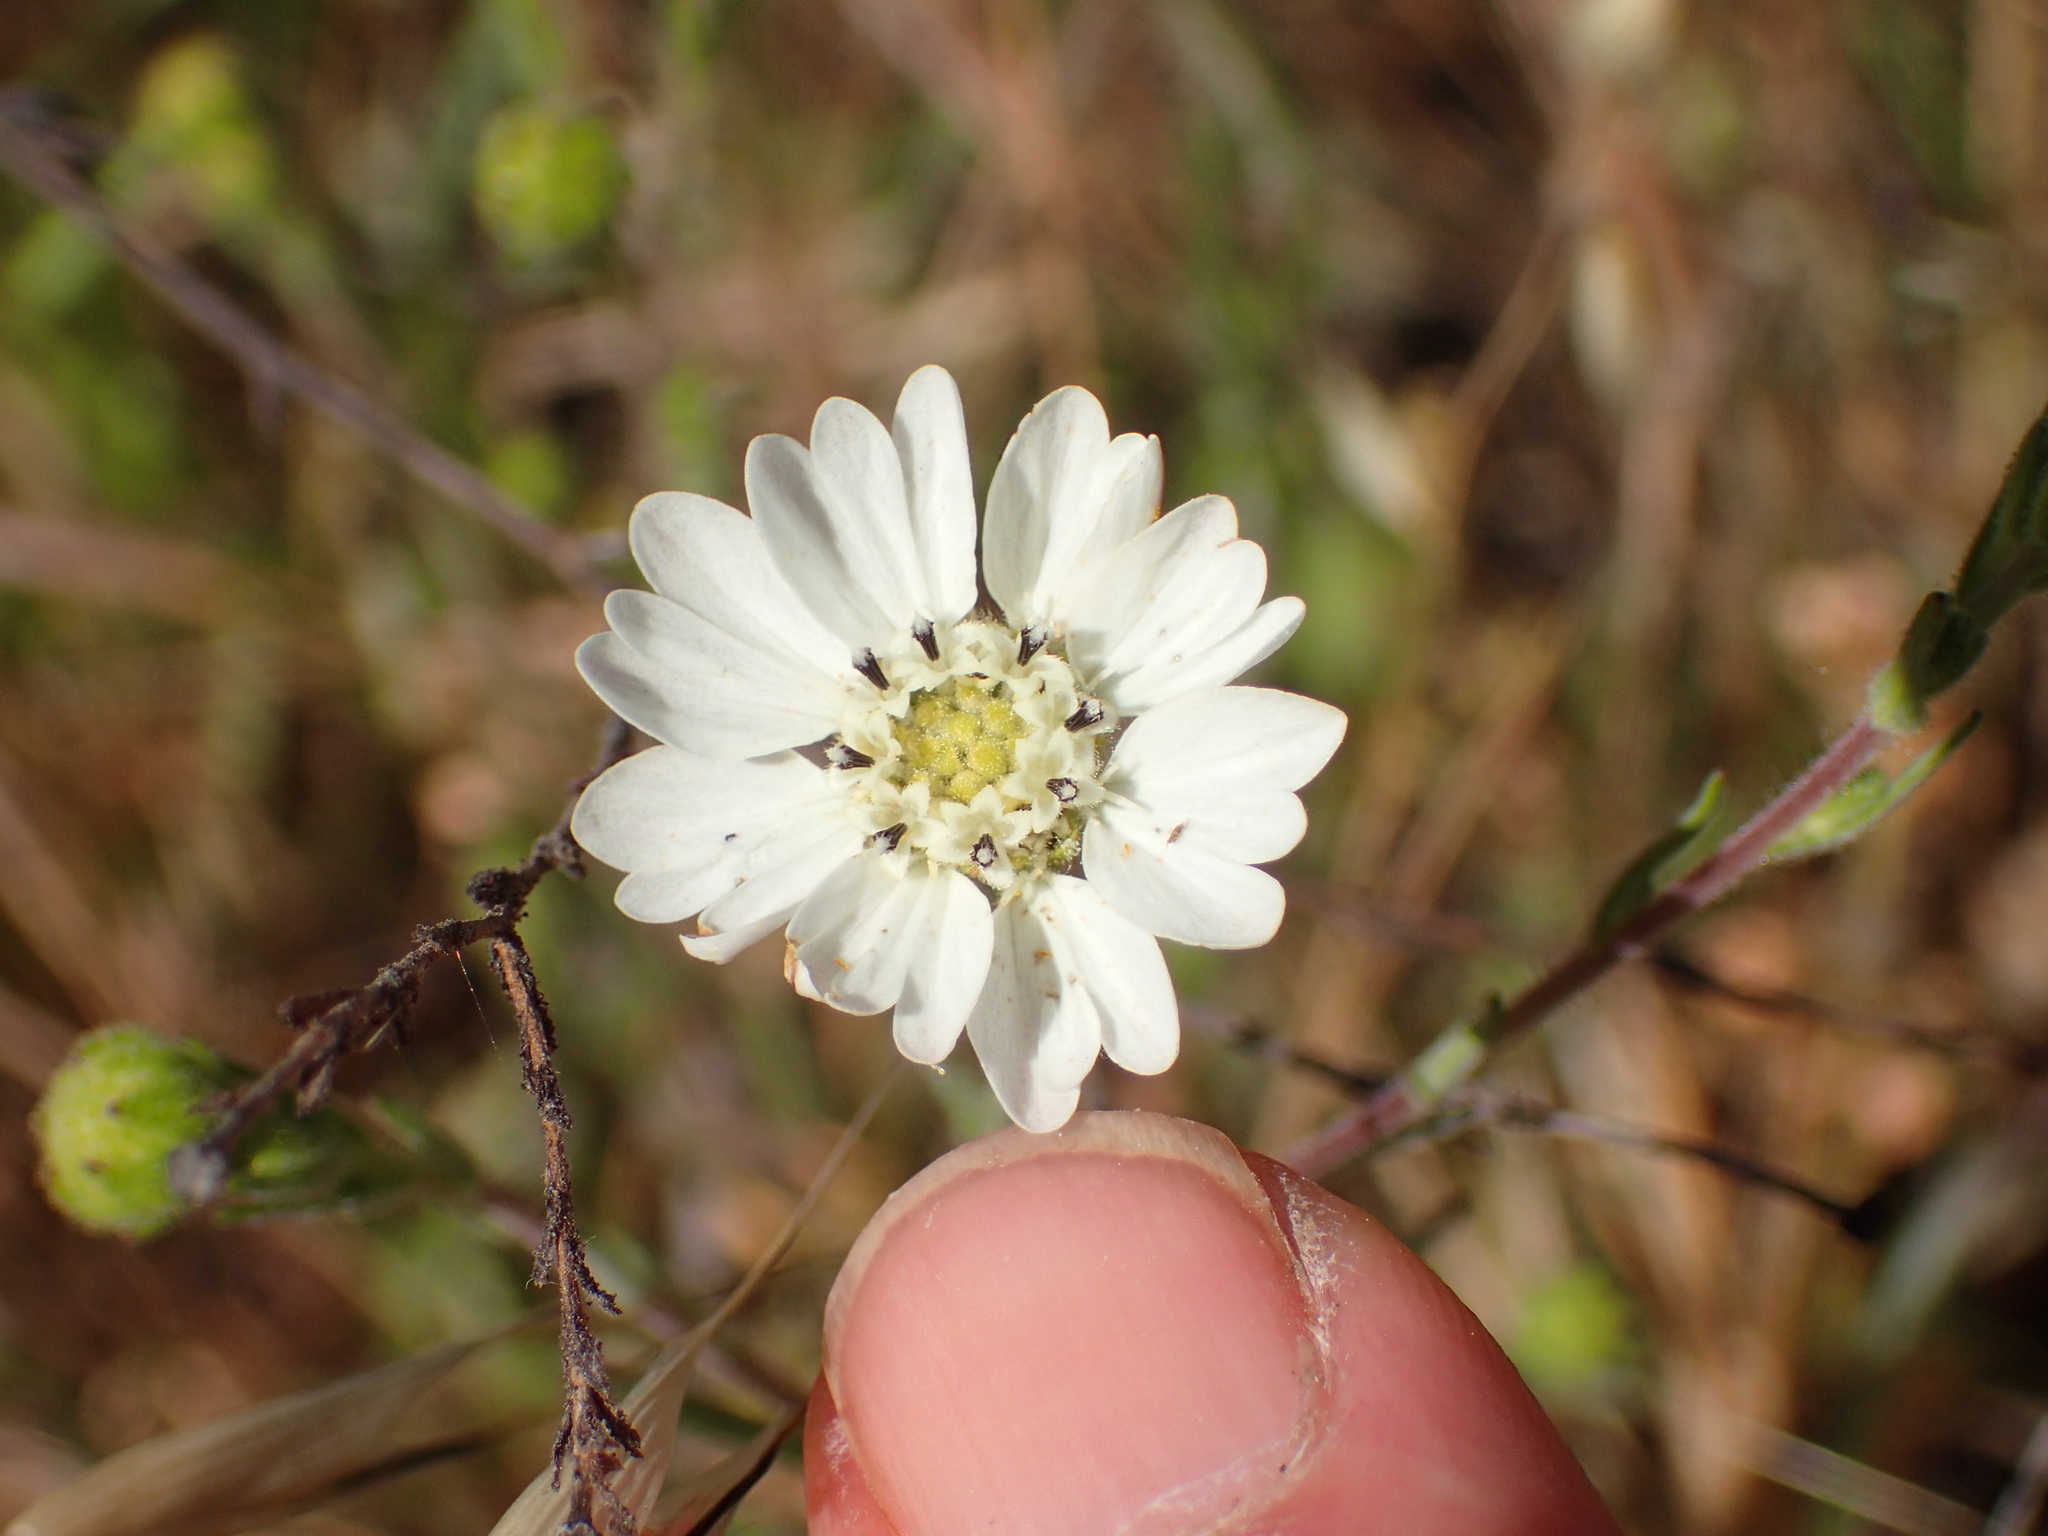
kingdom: Plantae
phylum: Tracheophyta
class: Magnoliopsida
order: Asterales
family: Asteraceae
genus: Hemizonia
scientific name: Hemizonia congesta
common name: Hayfield tarweed
